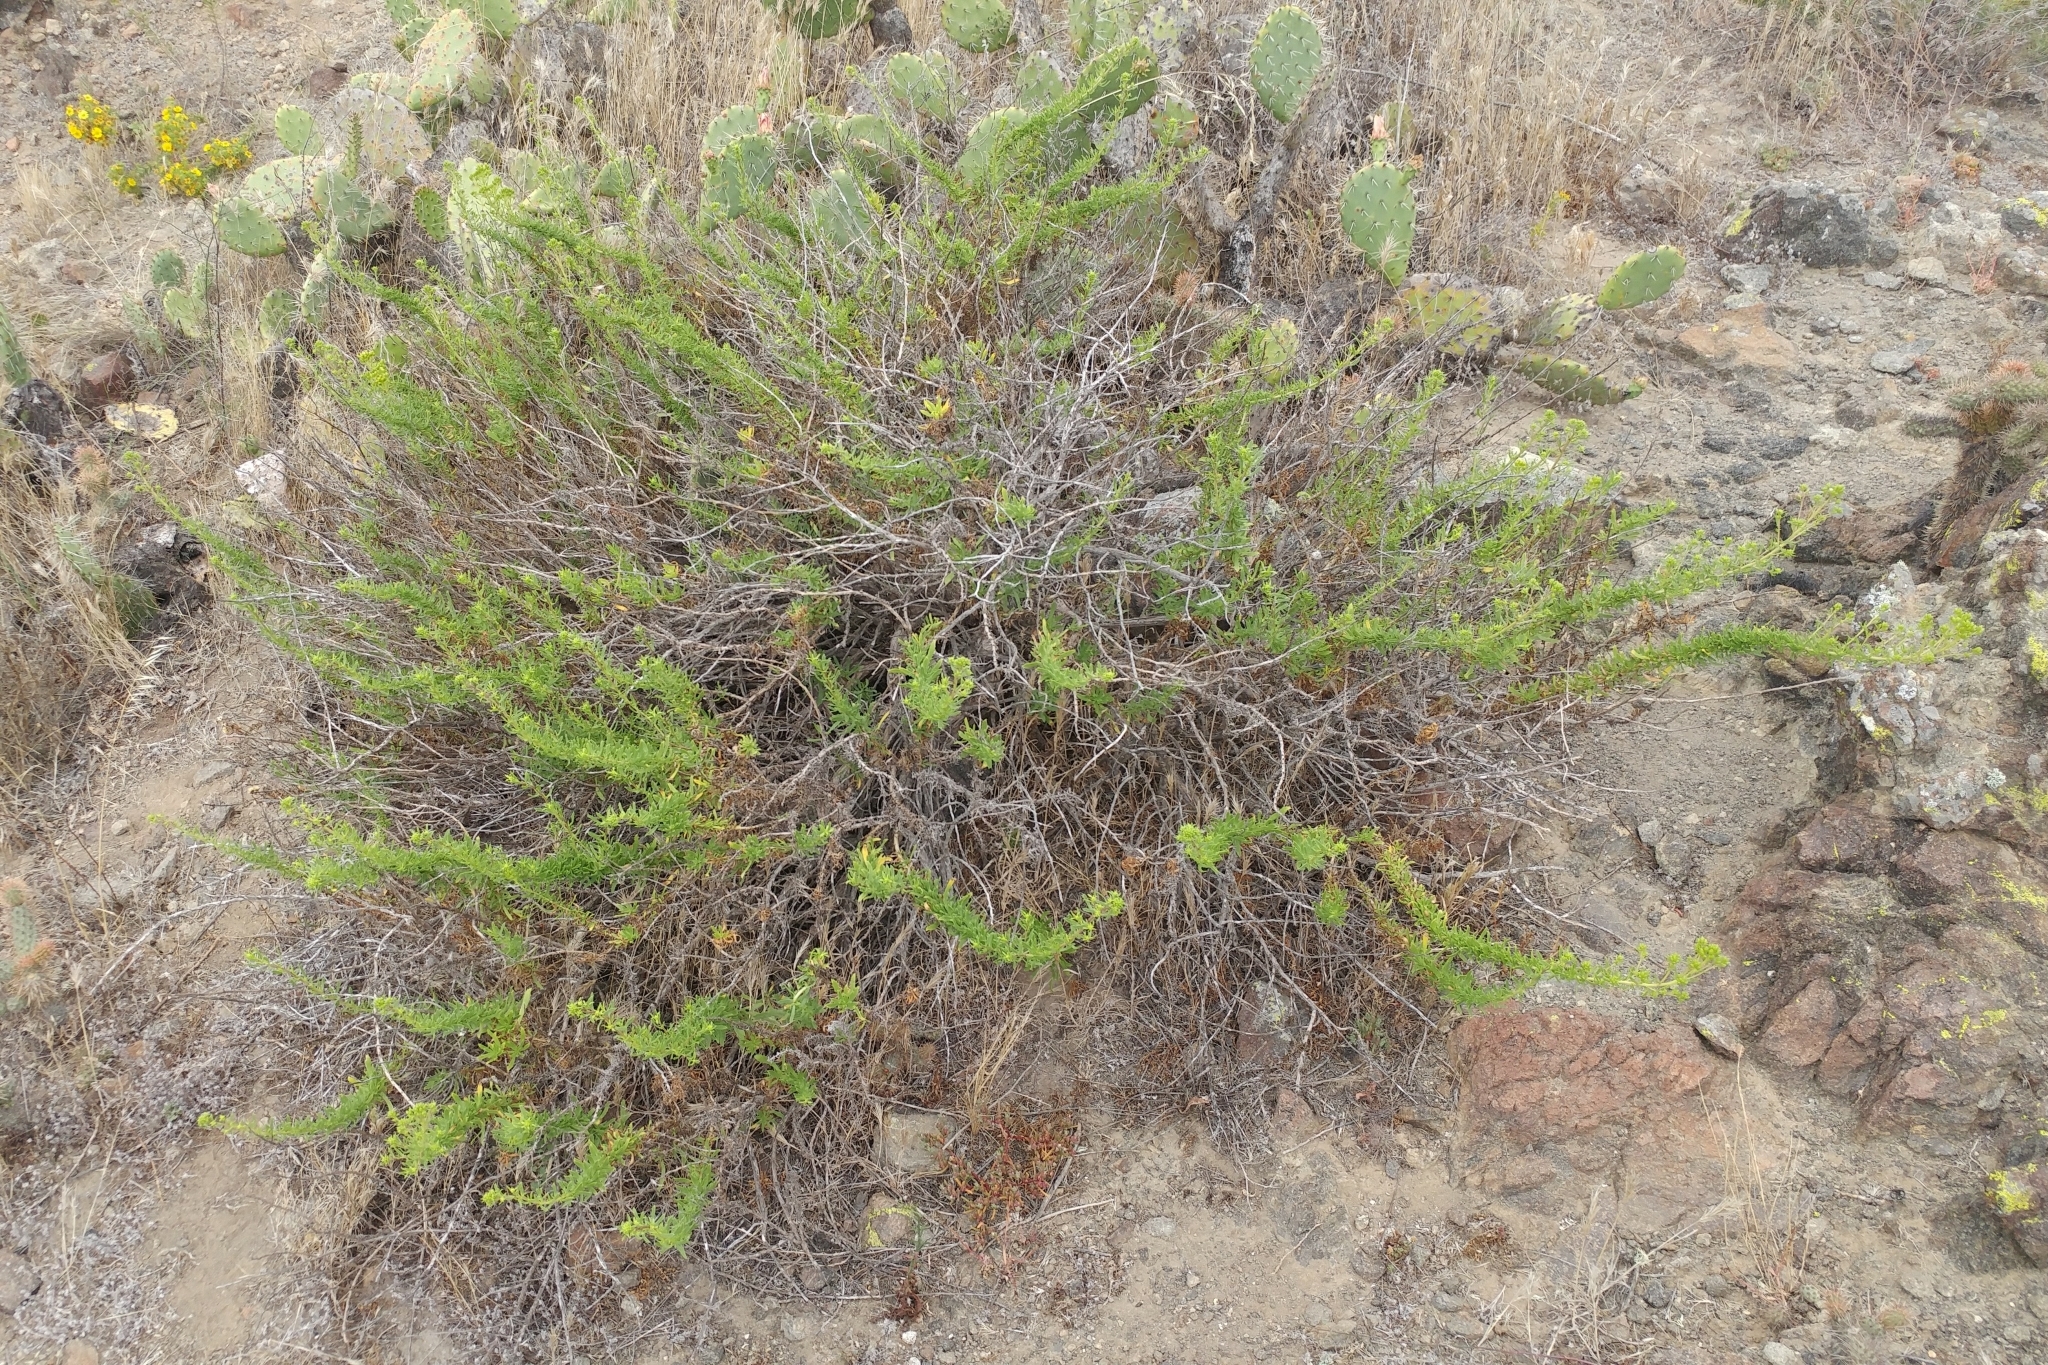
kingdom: Plantae
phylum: Tracheophyta
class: Magnoliopsida
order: Asterales
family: Asteraceae
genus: Isocoma
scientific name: Isocoma menziesii
